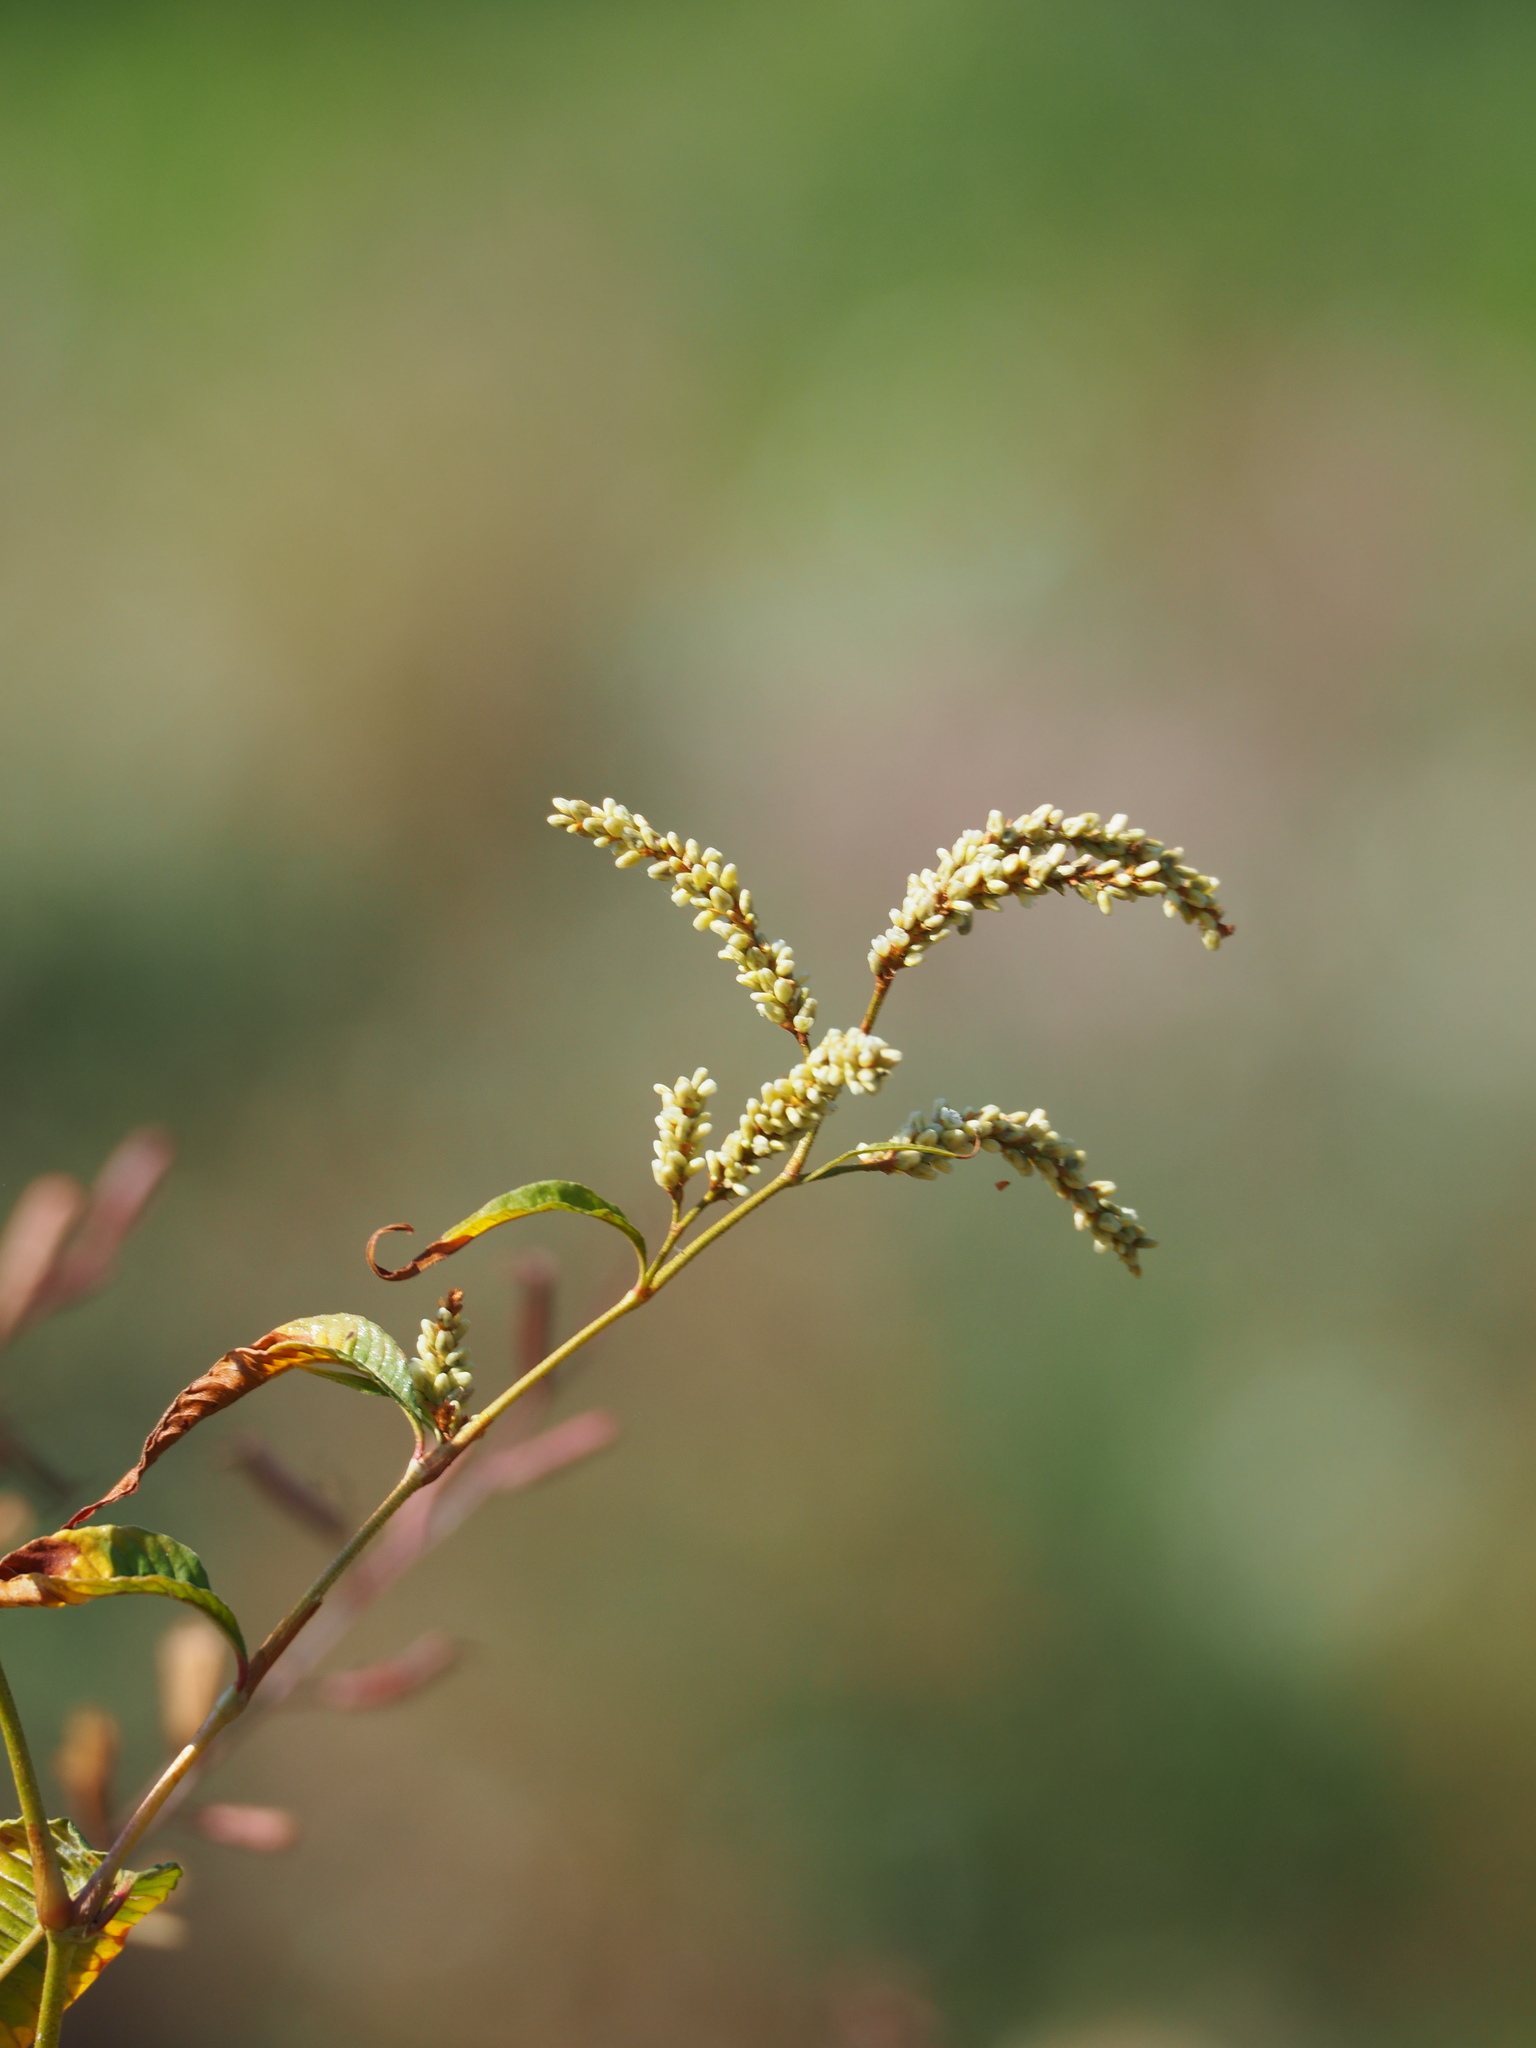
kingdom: Plantae
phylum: Tracheophyta
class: Magnoliopsida
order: Caryophyllales
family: Polygonaceae
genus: Persicaria
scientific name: Persicaria lapathifolia
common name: Curlytop knotweed
